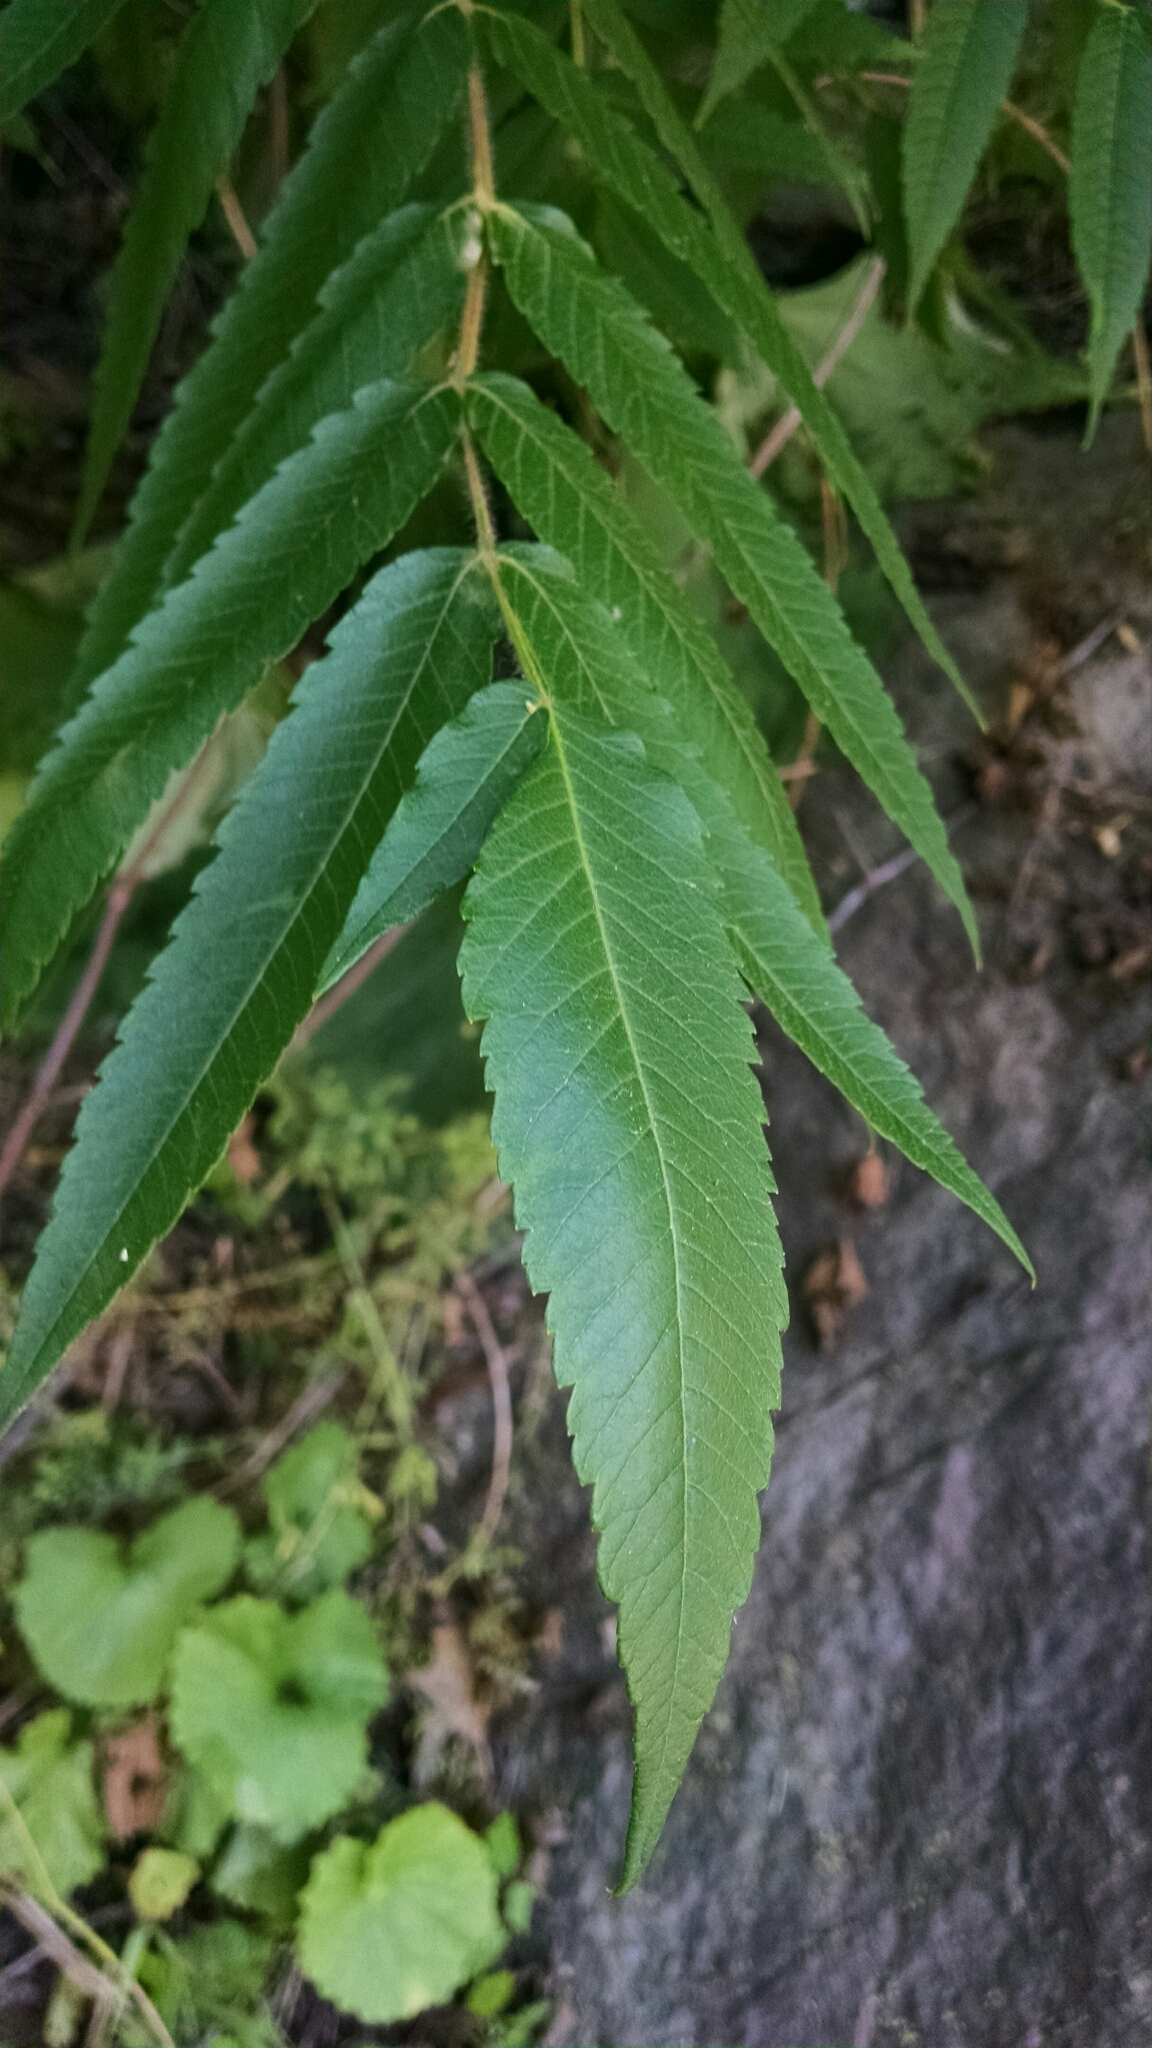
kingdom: Plantae
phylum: Tracheophyta
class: Magnoliopsida
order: Sapindales
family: Anacardiaceae
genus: Rhus
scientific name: Rhus typhina
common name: Staghorn sumac
